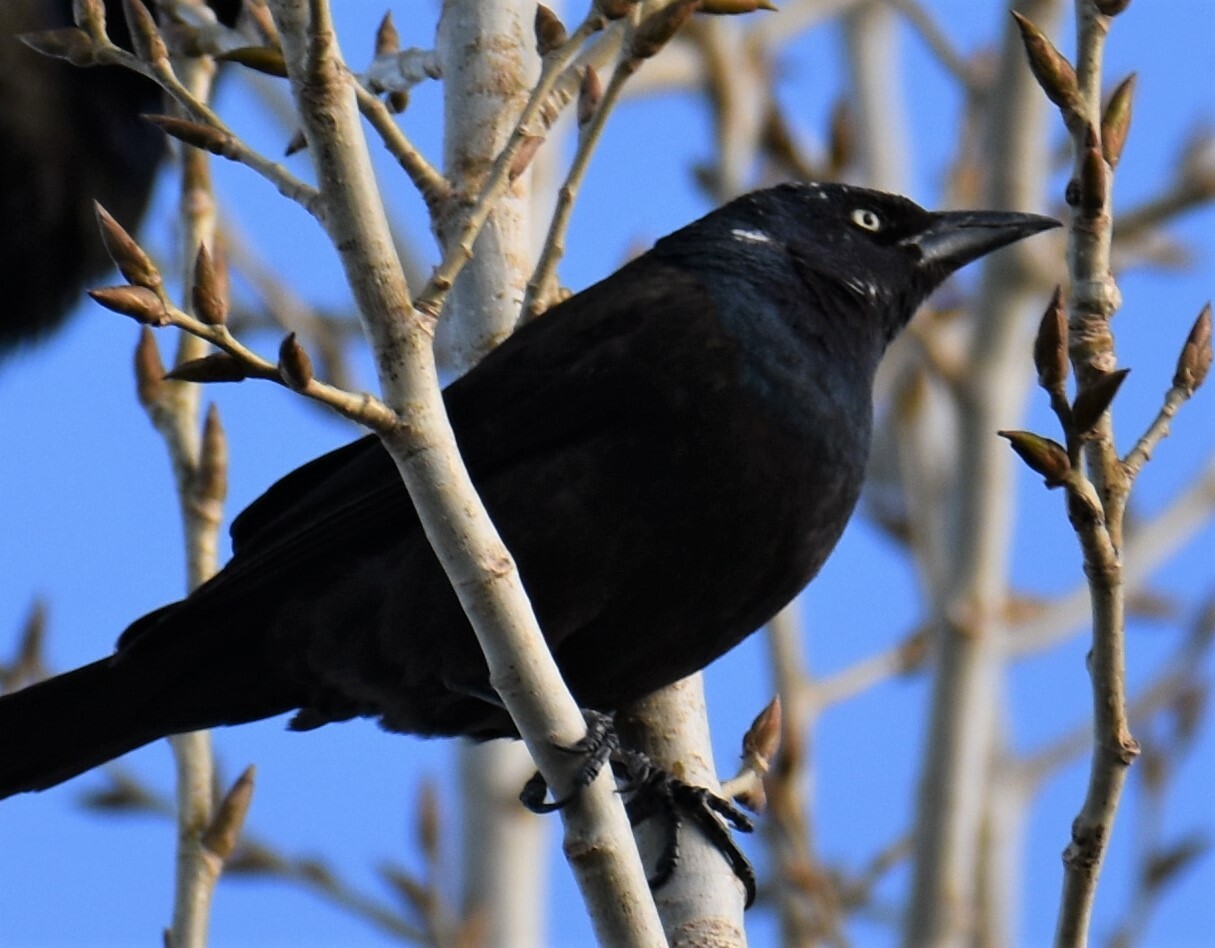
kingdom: Animalia
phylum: Chordata
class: Aves
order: Passeriformes
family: Icteridae
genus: Quiscalus
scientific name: Quiscalus quiscula
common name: Common grackle
